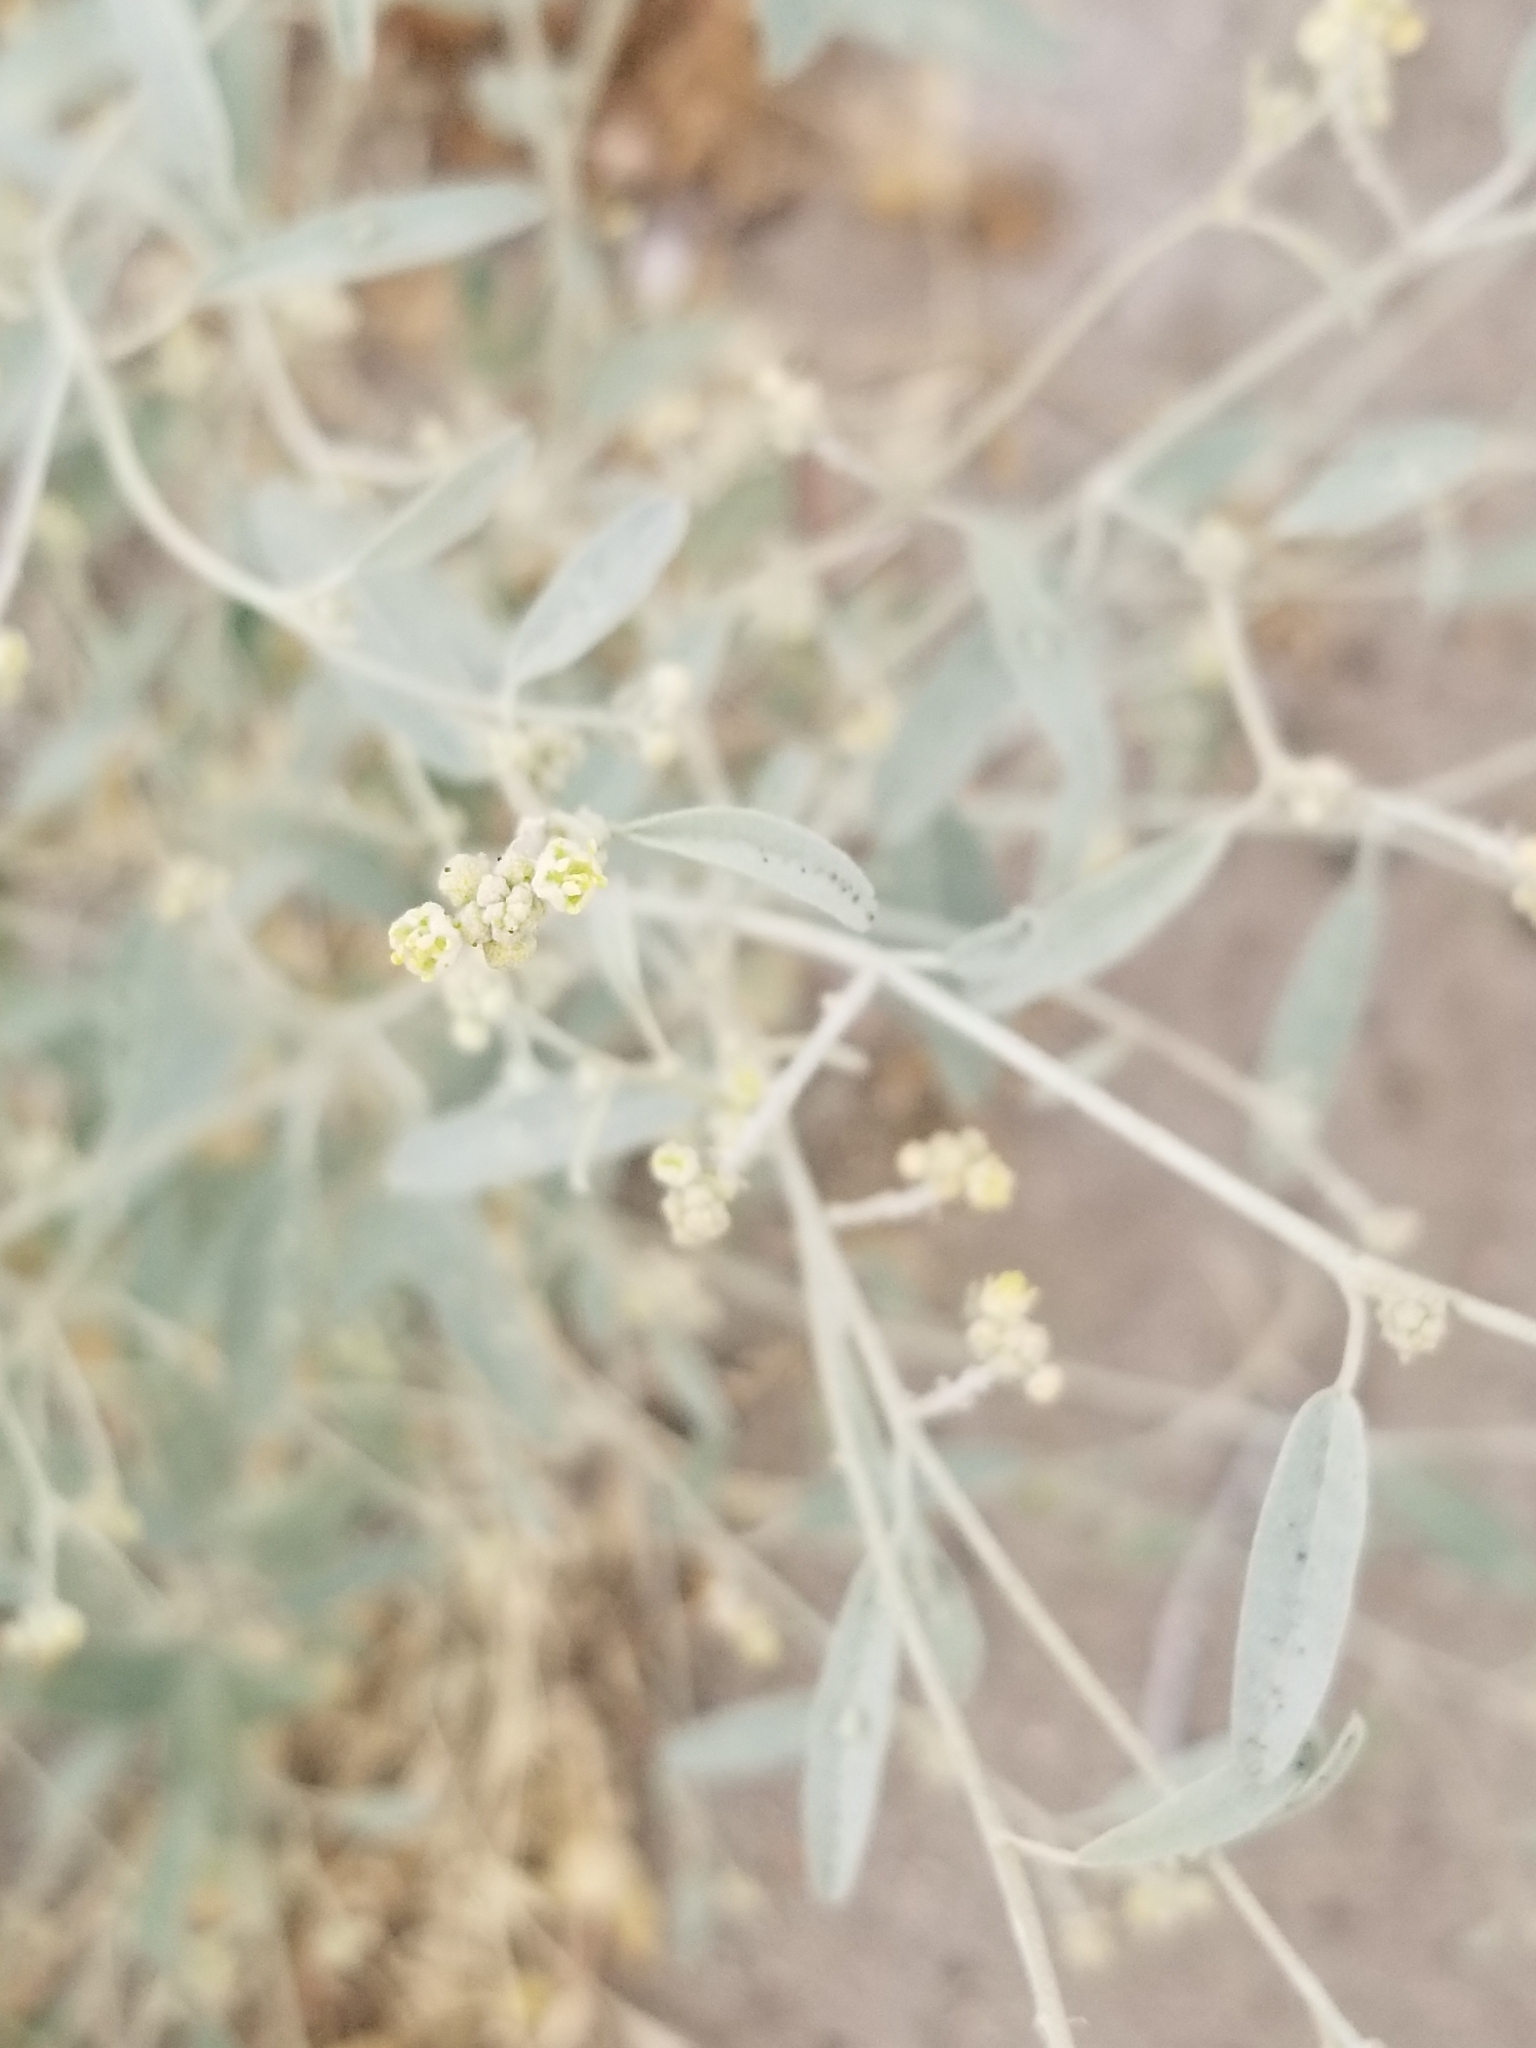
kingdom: Plantae
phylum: Tracheophyta
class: Magnoliopsida
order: Malpighiales
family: Euphorbiaceae
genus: Croton
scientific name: Croton californicus
